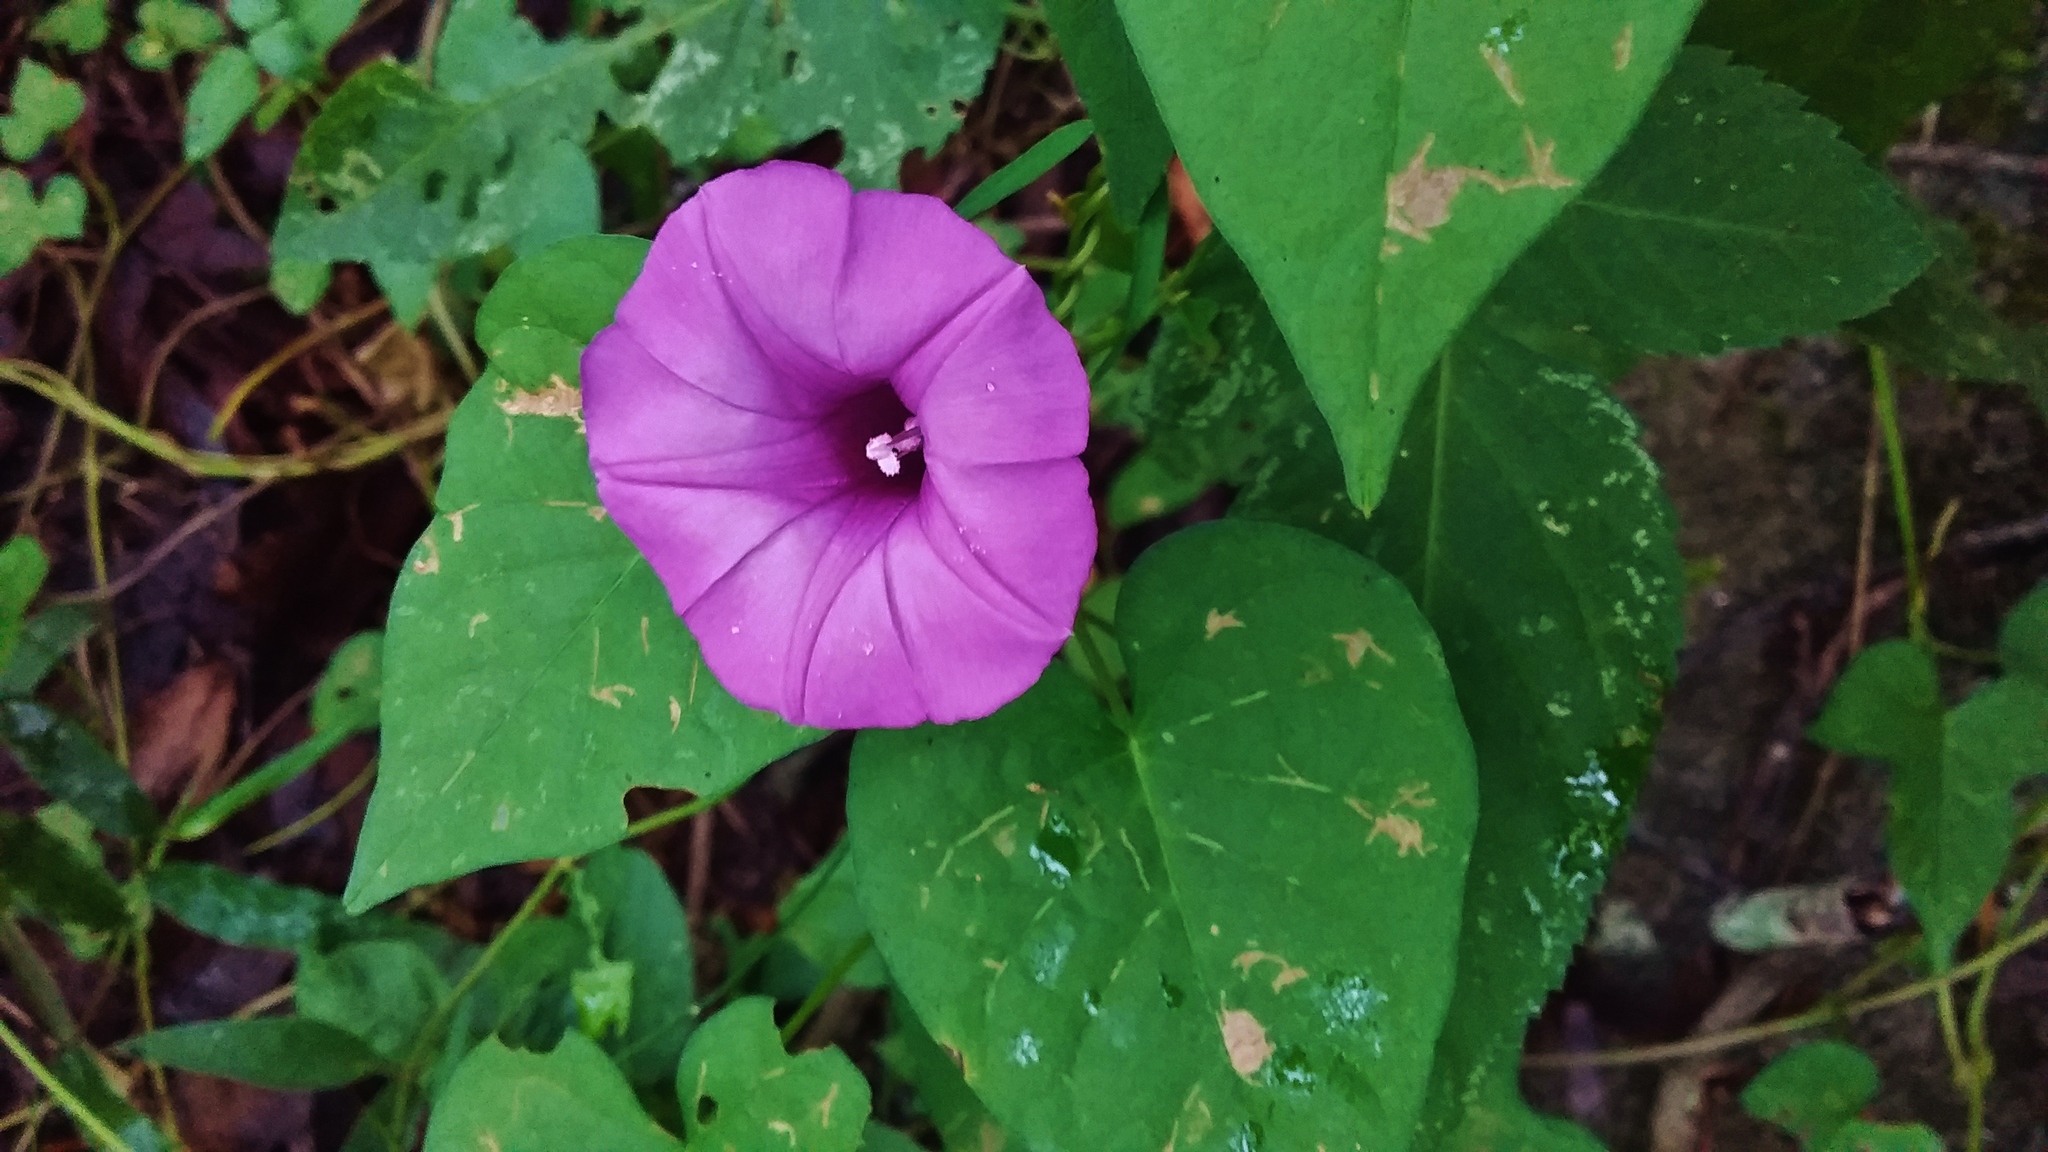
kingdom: Plantae
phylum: Tracheophyta
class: Magnoliopsida
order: Solanales
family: Convolvulaceae
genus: Ipomoea
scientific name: Ipomoea cordatotriloba
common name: Cotton morning glory
